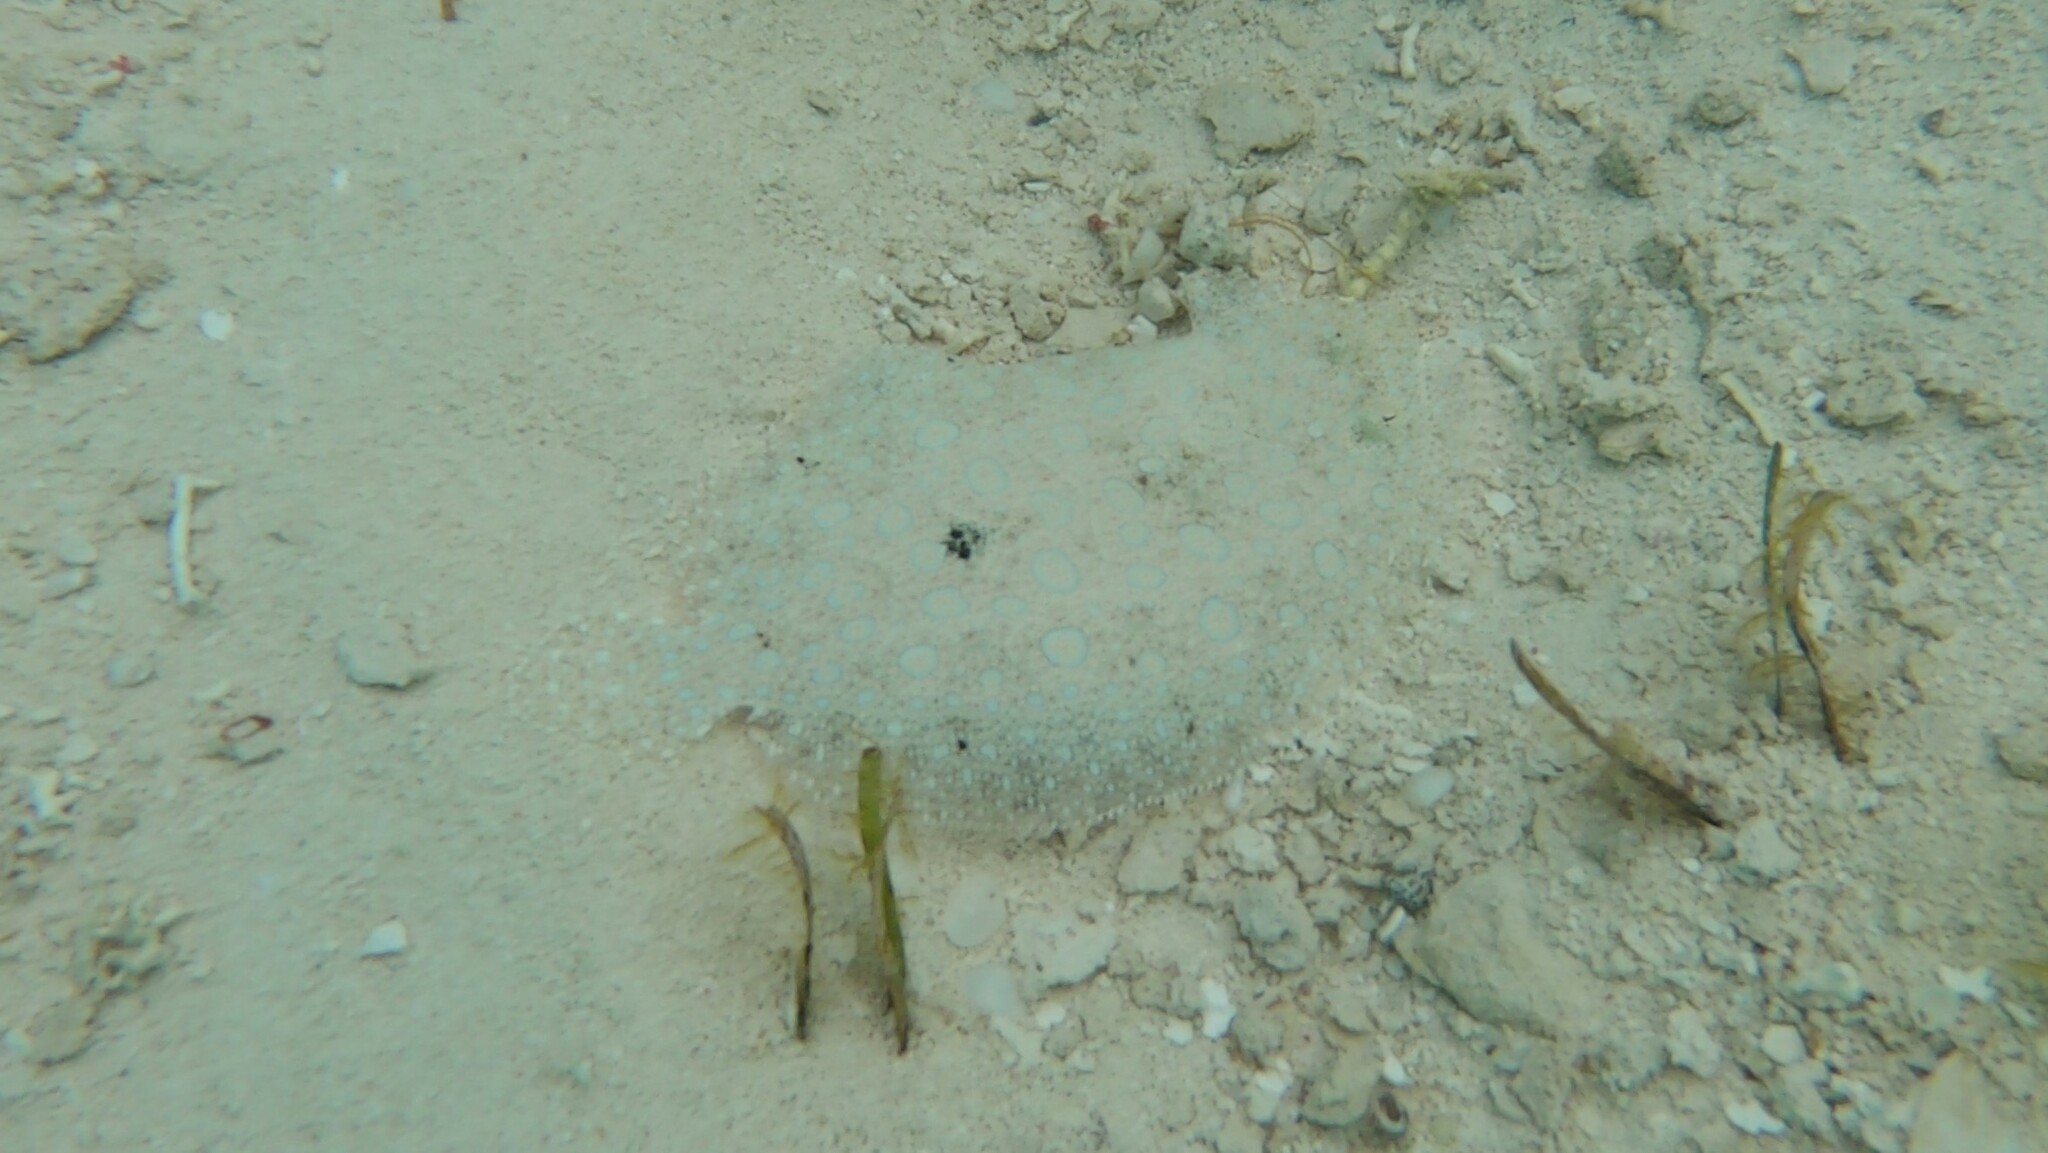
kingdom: Animalia
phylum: Chordata
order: Pleuronectiformes
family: Bothidae
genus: Bothus
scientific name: Bothus lunatus
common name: Peacock flounder
